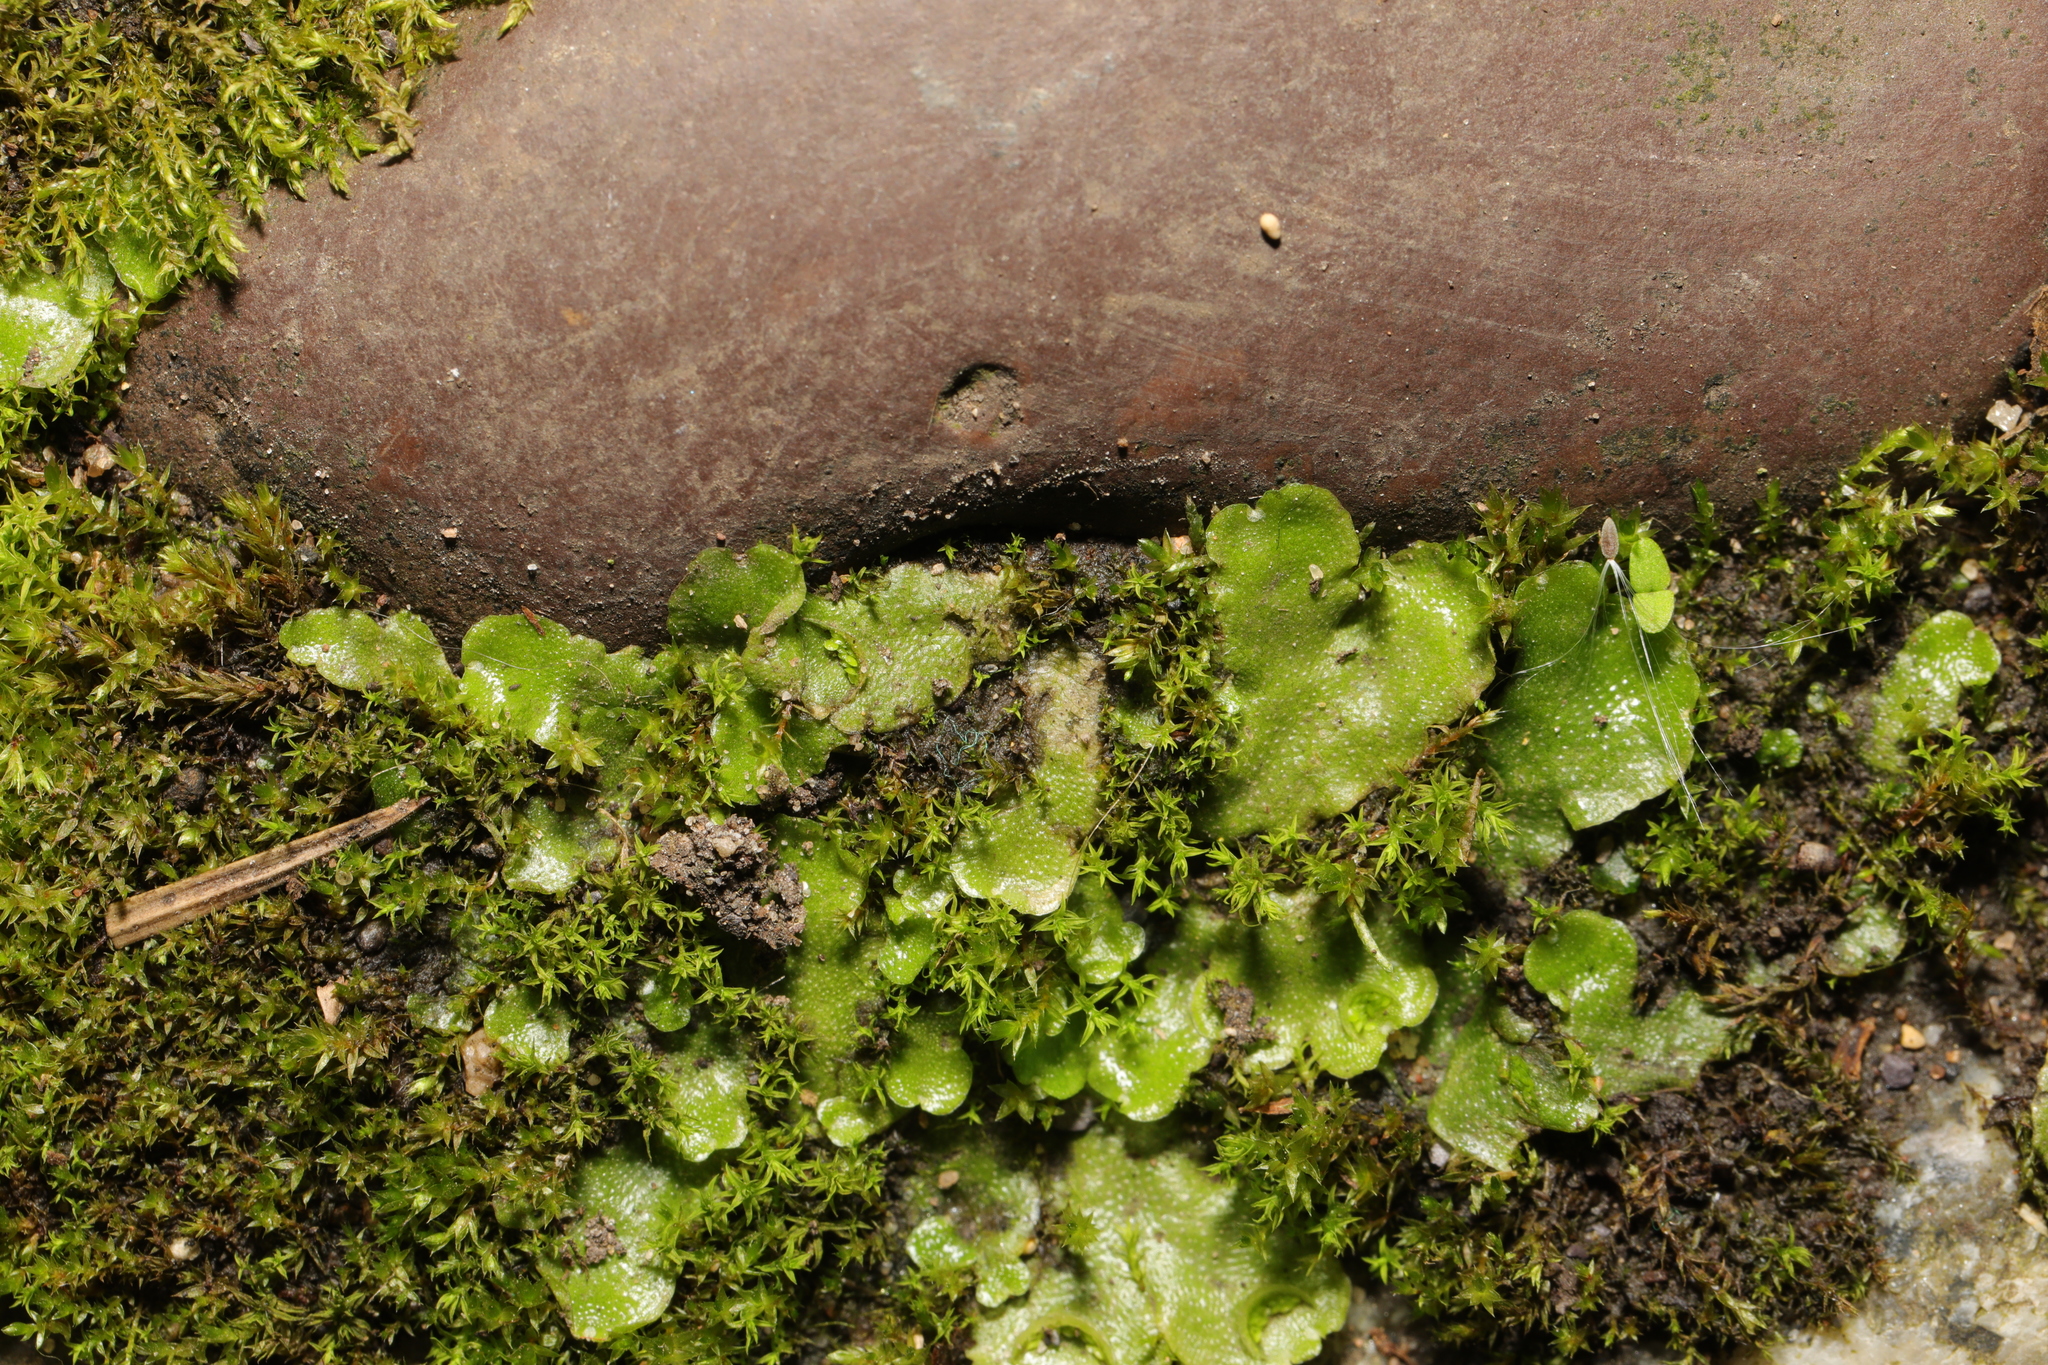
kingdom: Plantae
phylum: Marchantiophyta
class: Marchantiopsida
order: Lunulariales
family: Lunulariaceae
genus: Lunularia
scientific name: Lunularia cruciata
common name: Crescent-cup liverwort
